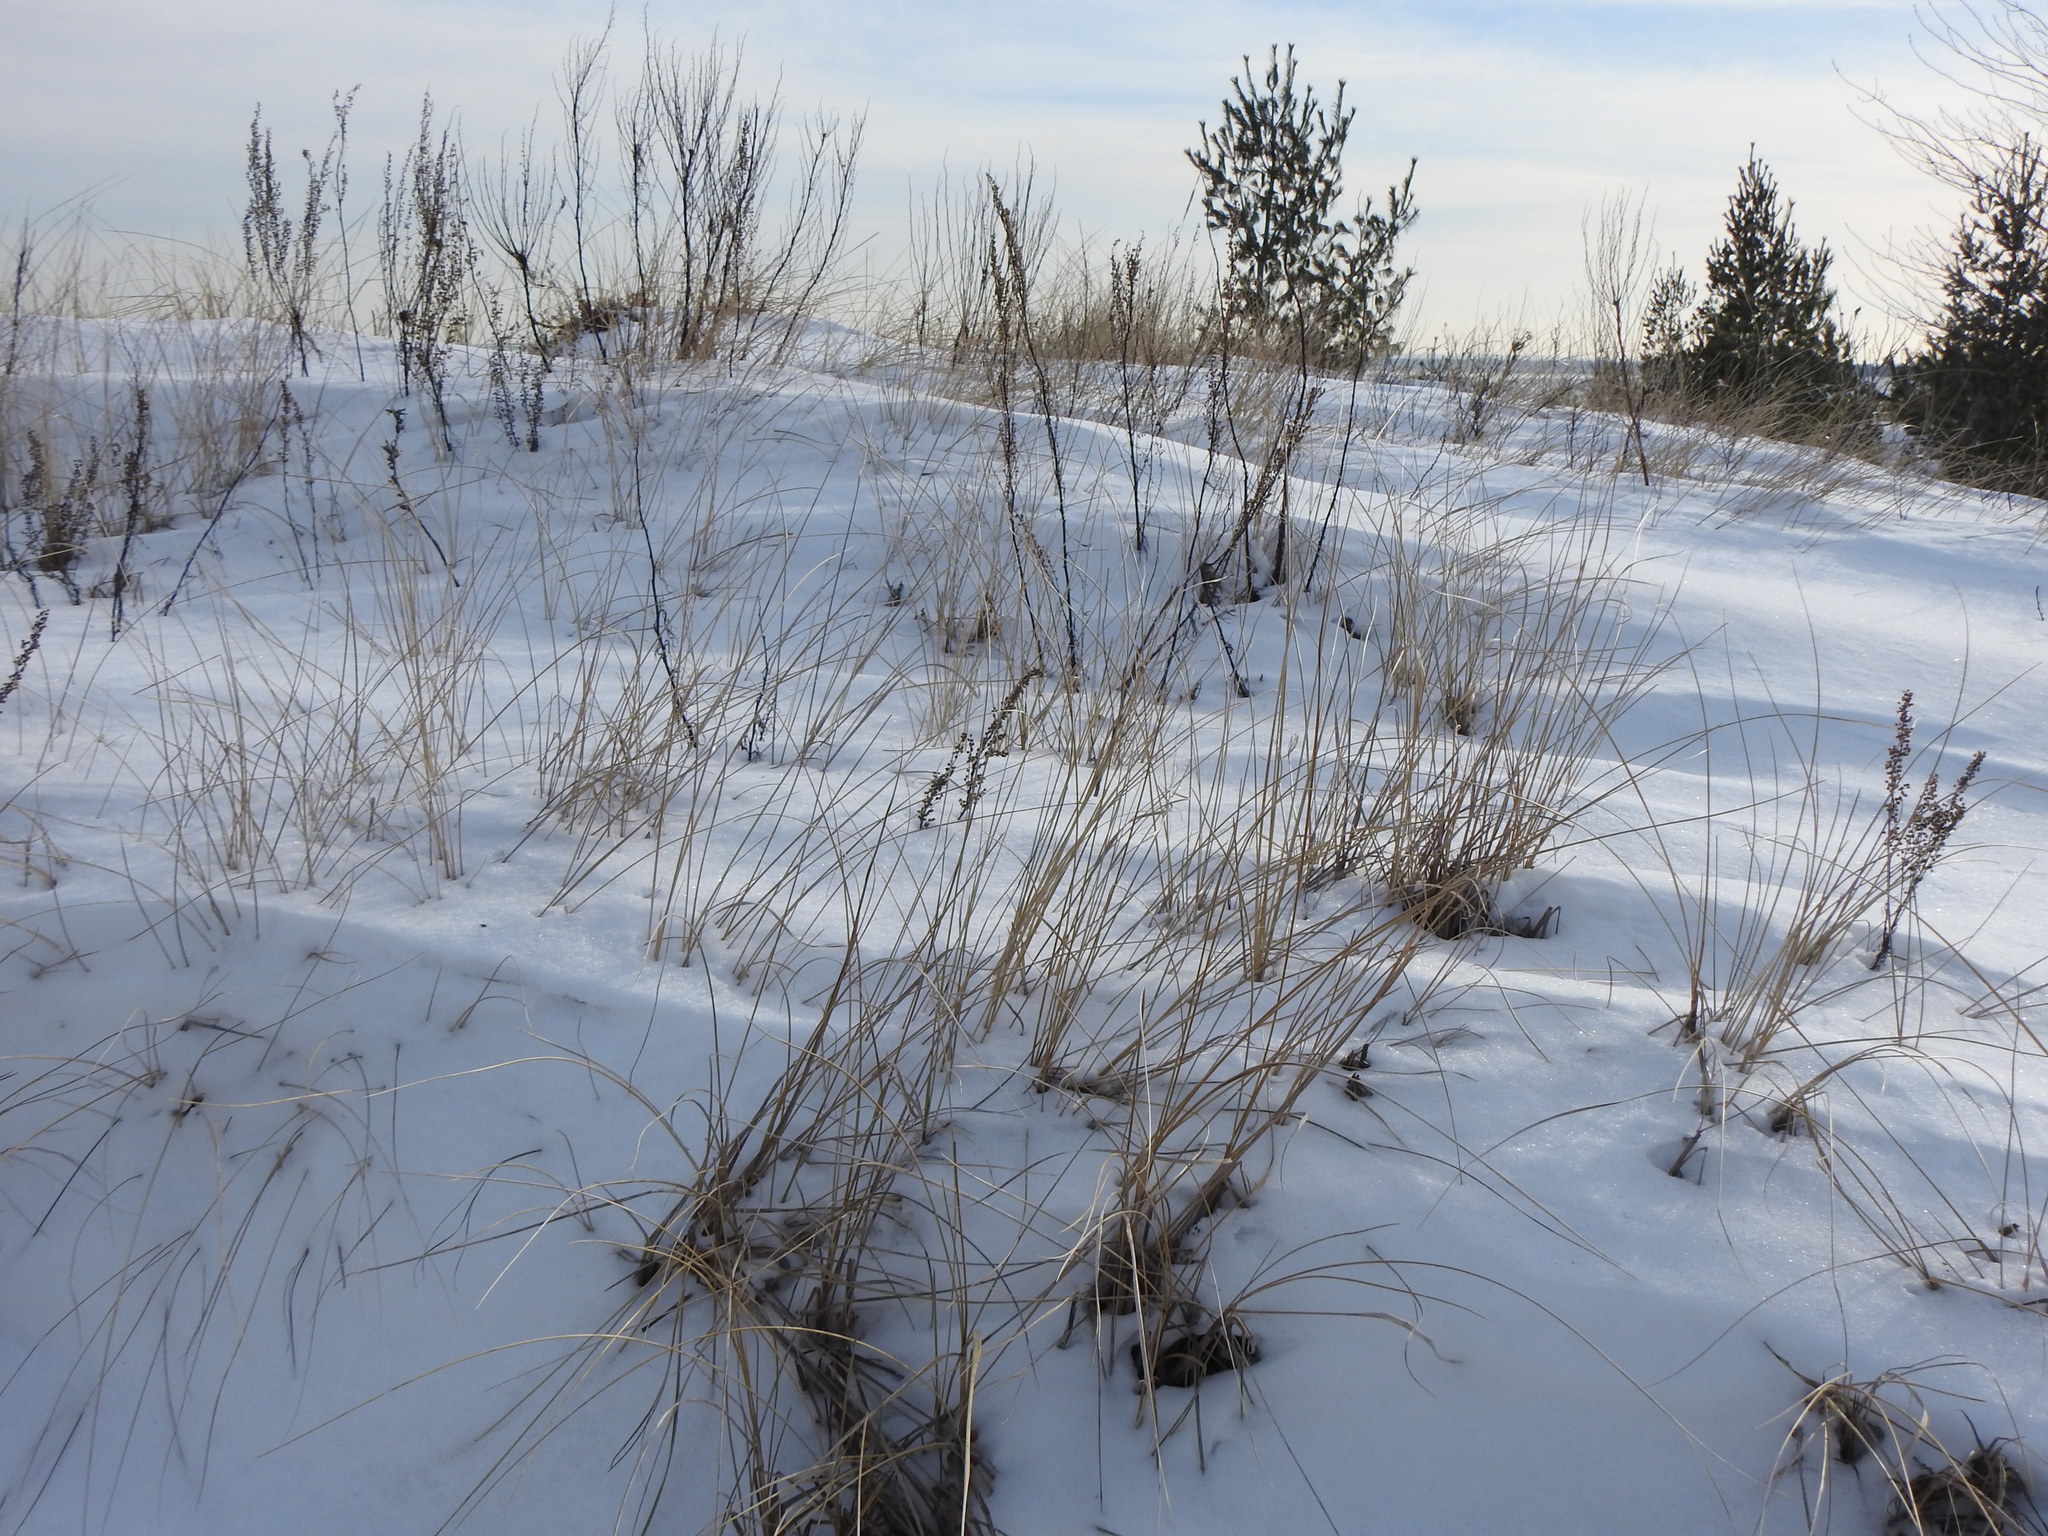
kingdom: Plantae
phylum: Tracheophyta
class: Liliopsida
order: Poales
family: Poaceae
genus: Calamagrostis
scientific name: Calamagrostis breviligulata
